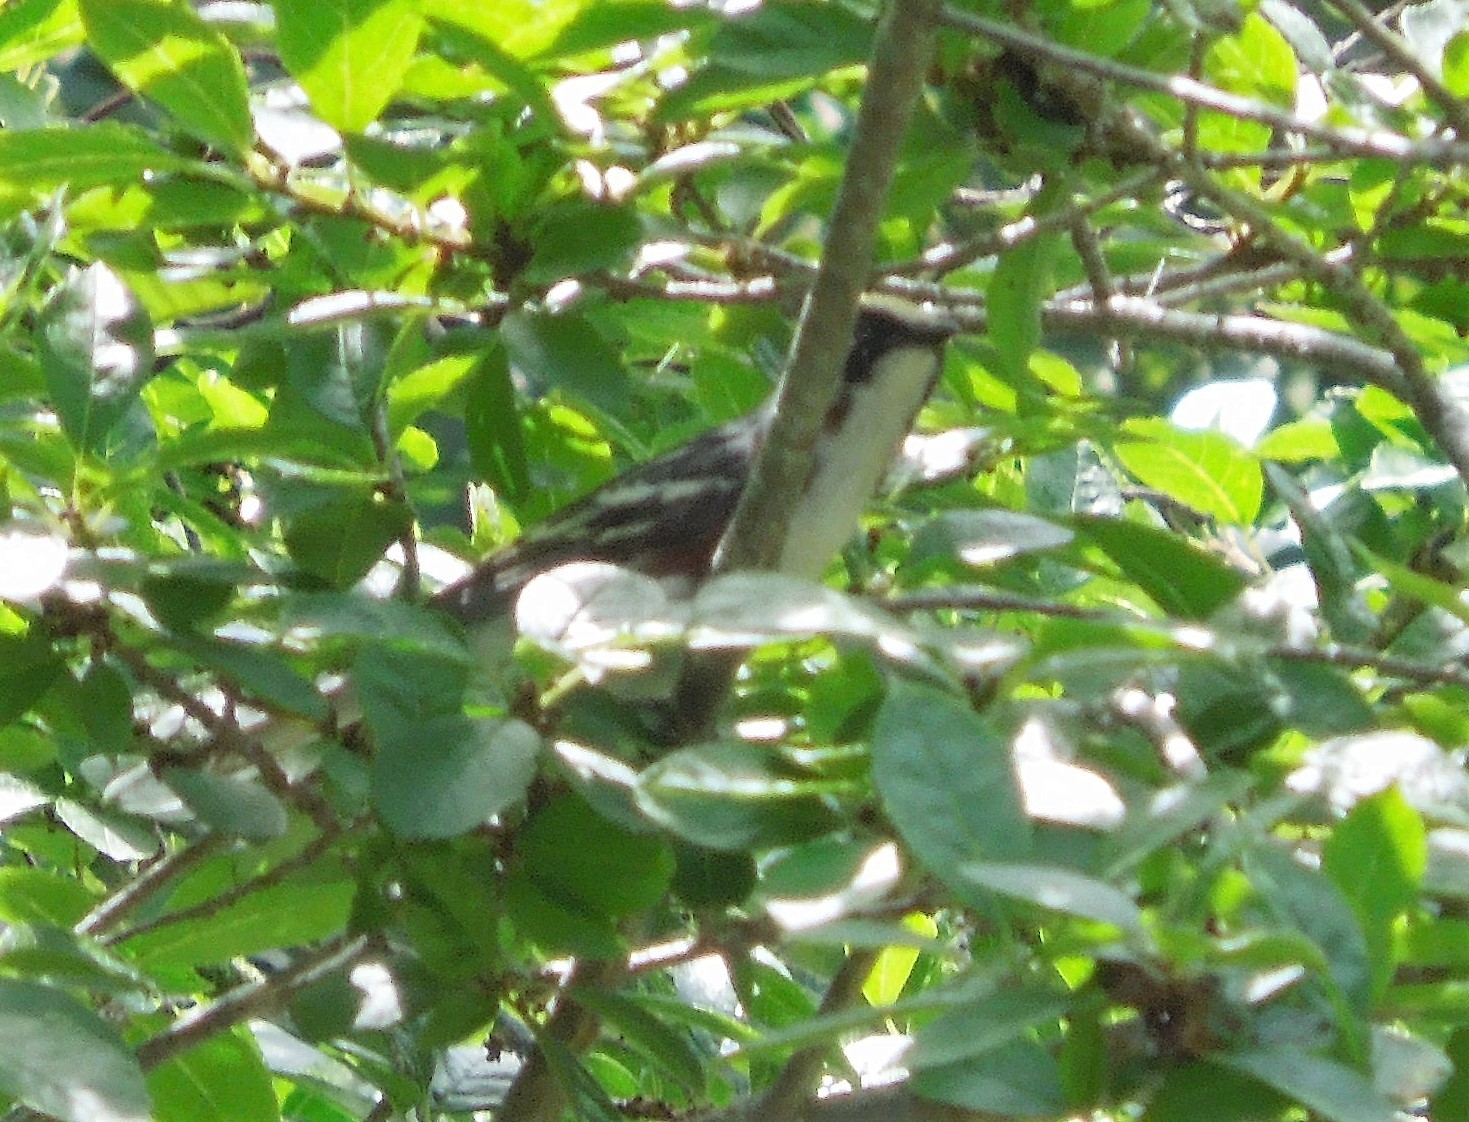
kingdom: Animalia
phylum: Chordata
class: Aves
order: Passeriformes
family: Parulidae
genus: Setophaga
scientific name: Setophaga pensylvanica
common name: Chestnut-sided warbler
